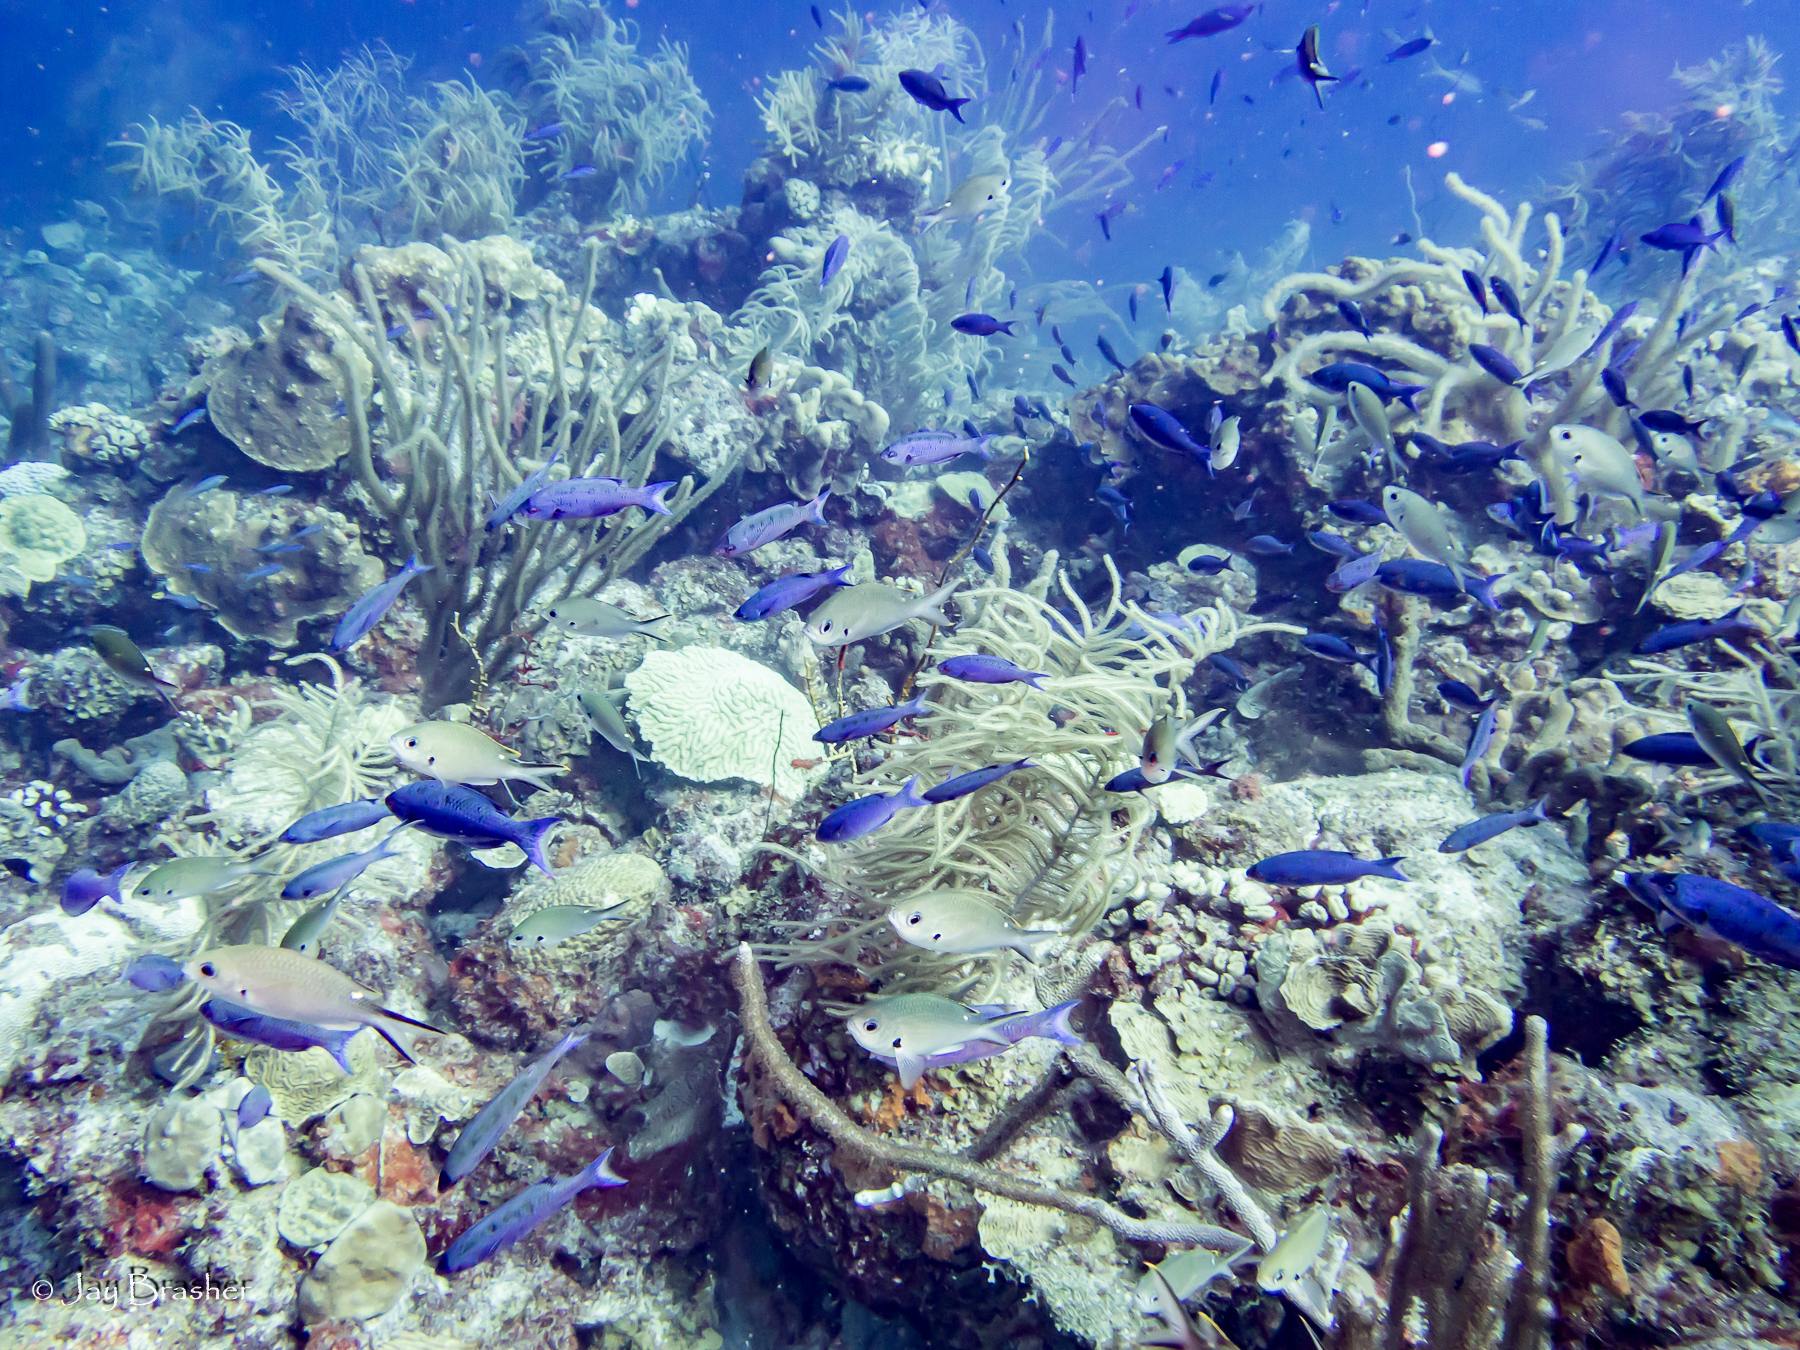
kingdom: Animalia
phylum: Chordata
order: Perciformes
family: Labridae
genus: Bodianus
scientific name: Bodianus
